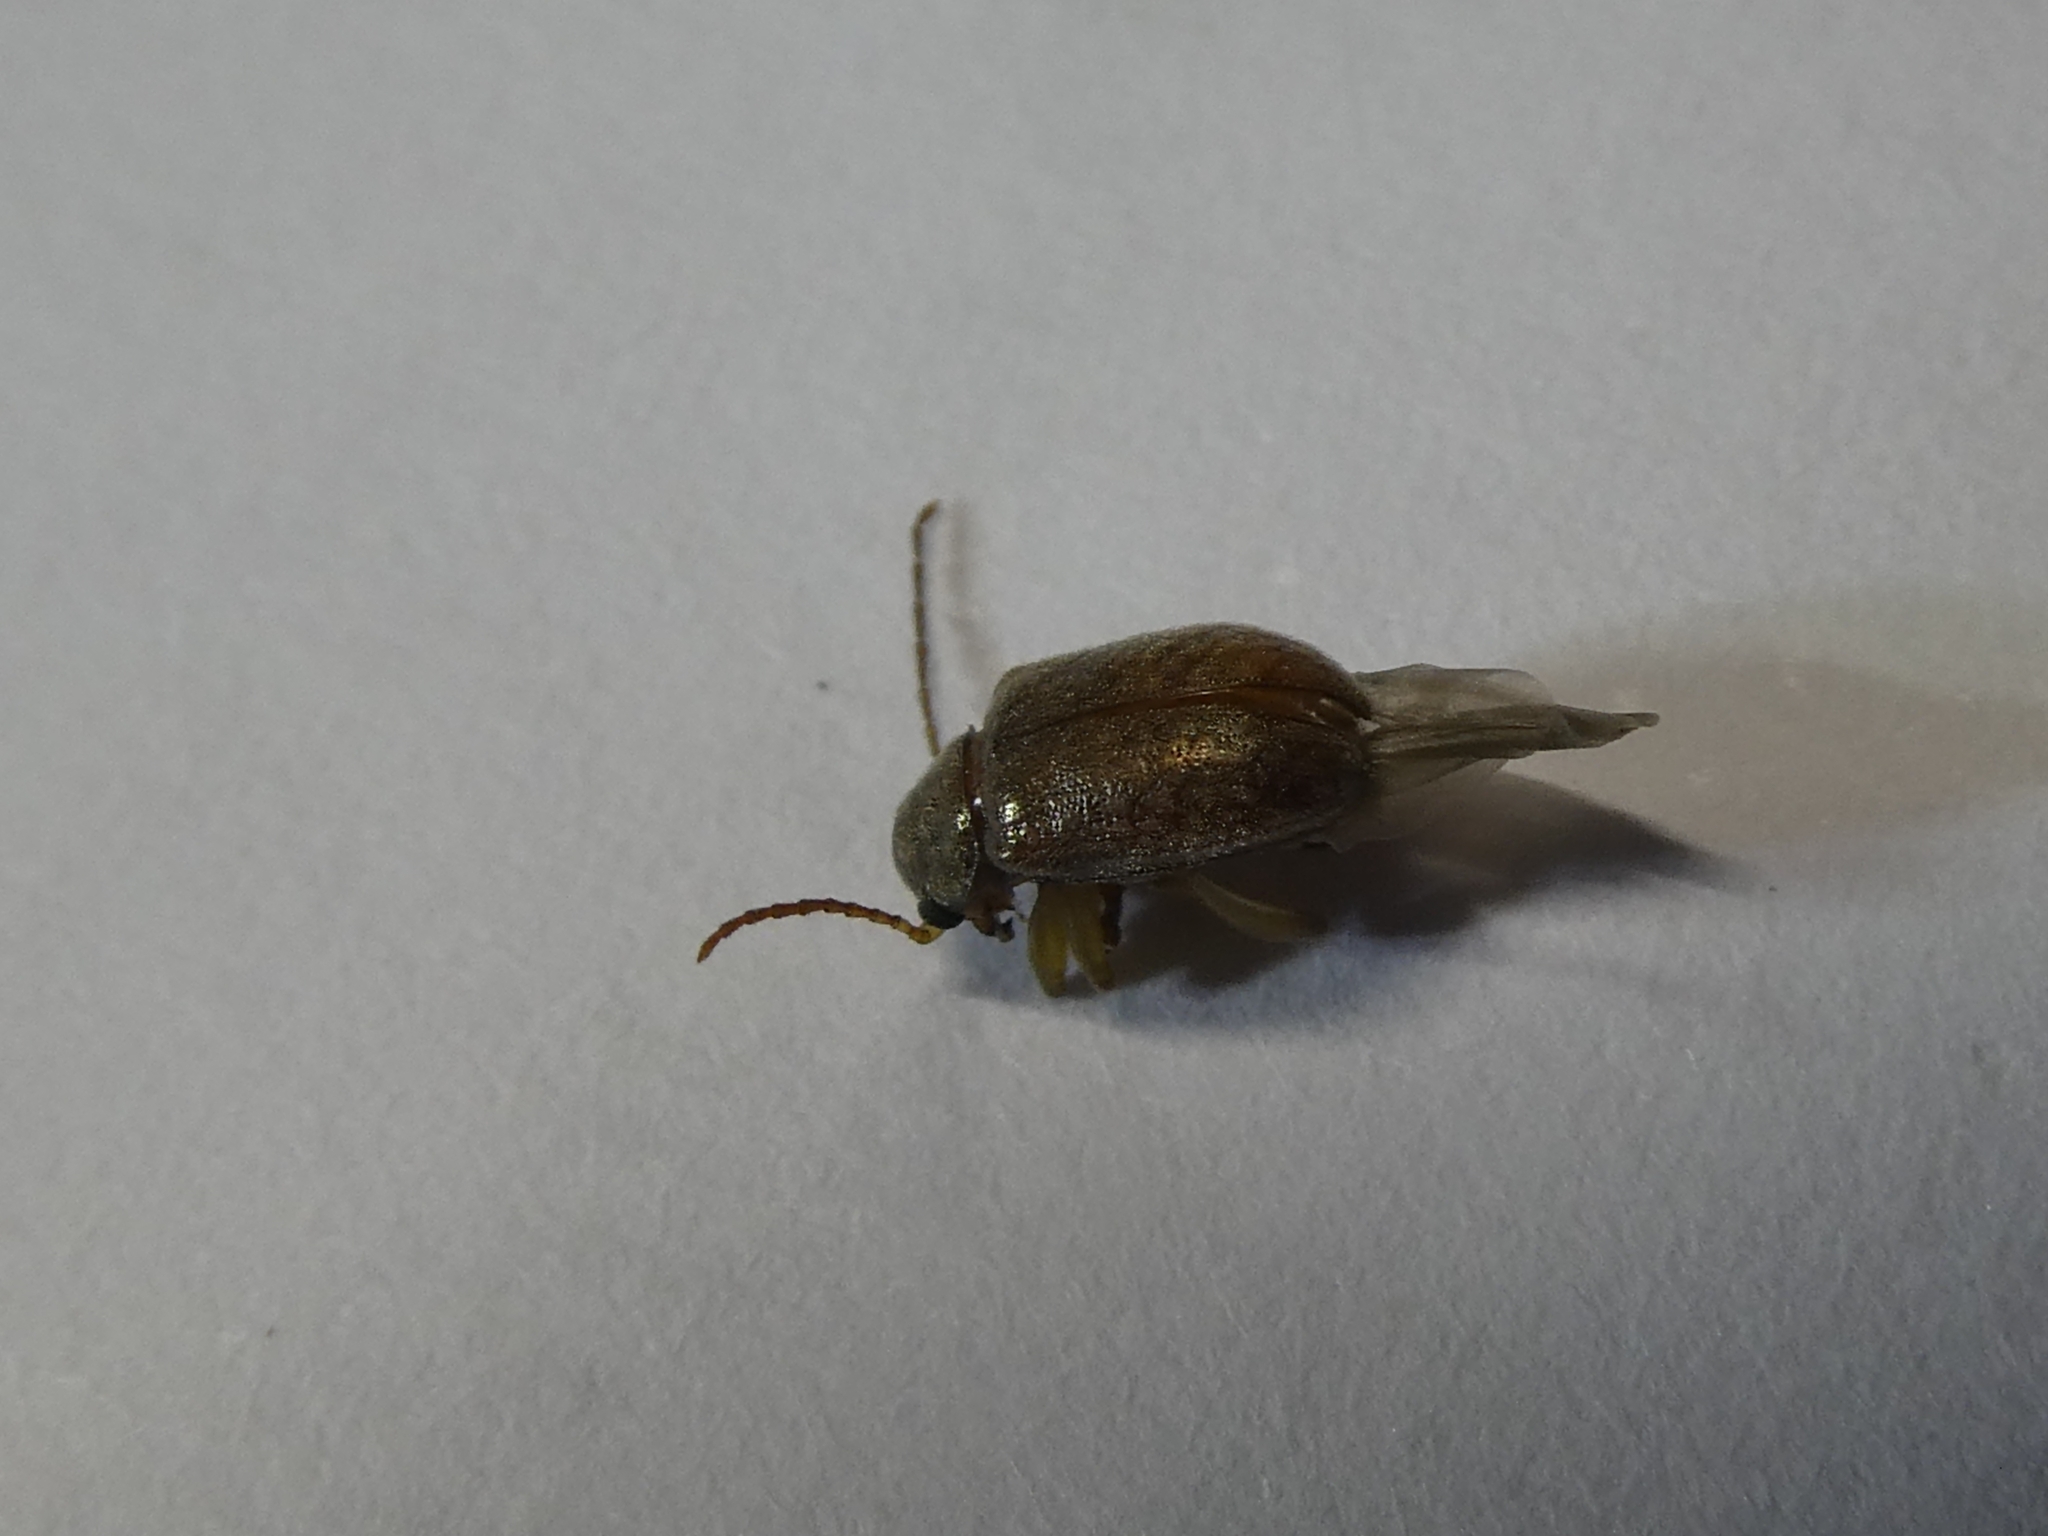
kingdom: Animalia
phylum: Arthropoda
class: Insecta
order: Coleoptera
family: Chrysomelidae
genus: Pilacolaspis
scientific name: Pilacolaspis latipennis
